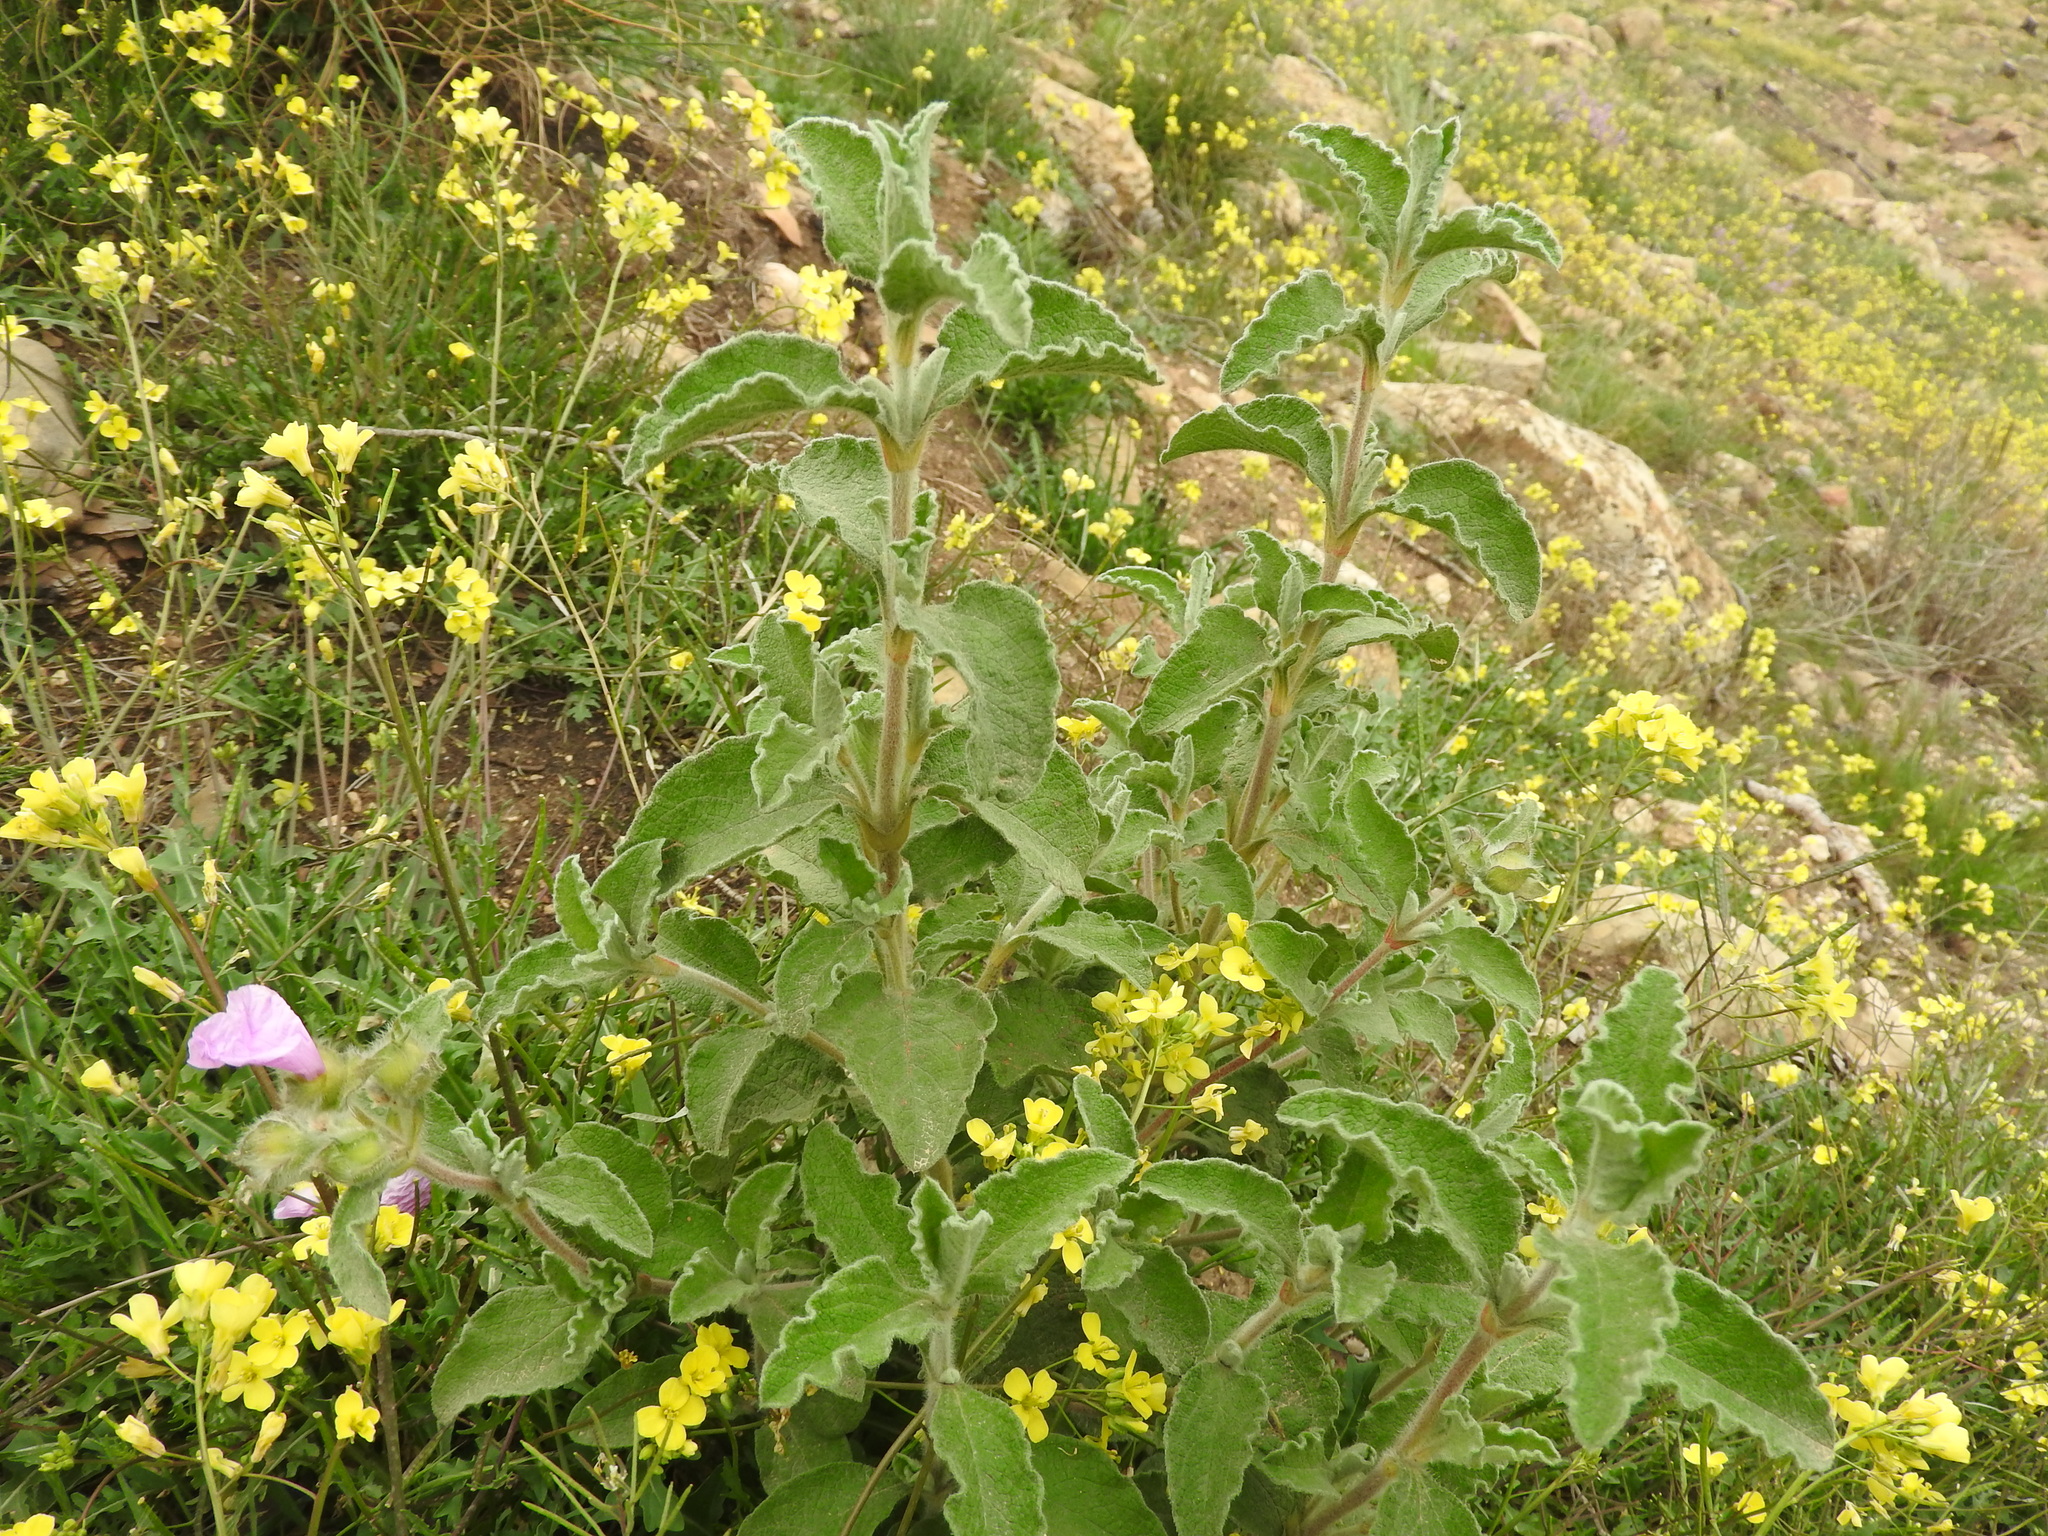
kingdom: Plantae
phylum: Tracheophyta
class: Magnoliopsida
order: Malvales
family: Cistaceae
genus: Cistus
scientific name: Cistus creticus
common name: Cretan rockrose
